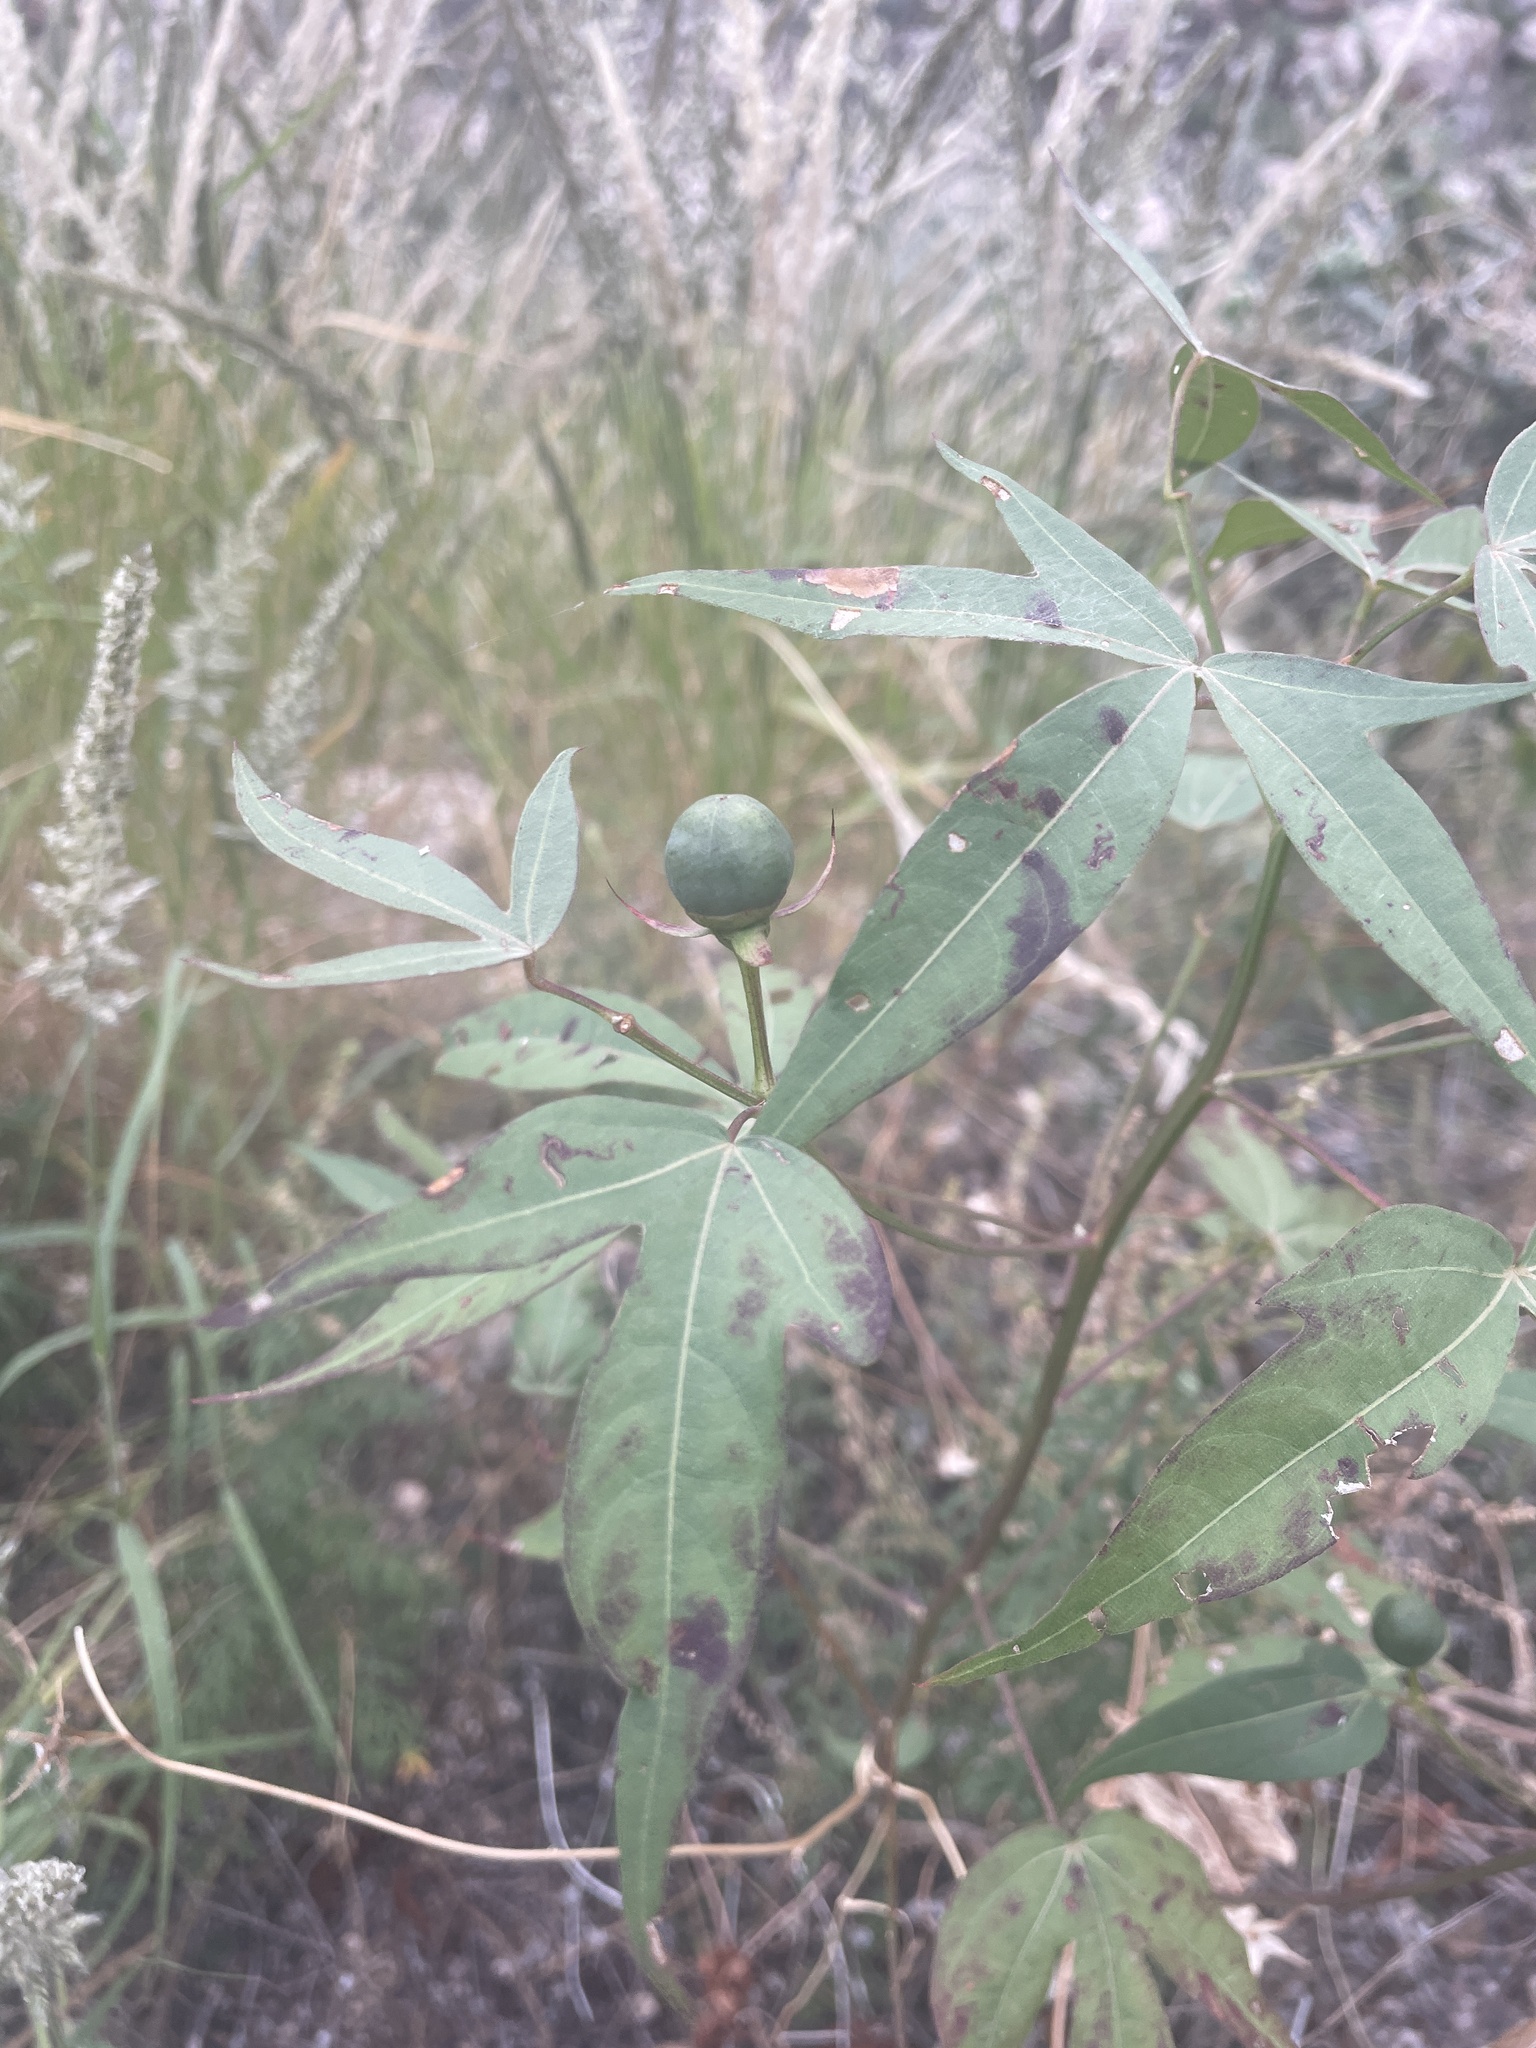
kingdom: Plantae
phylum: Tracheophyta
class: Magnoliopsida
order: Malvales
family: Malvaceae
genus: Gossypium
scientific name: Gossypium thurberi
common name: Desert cotton
